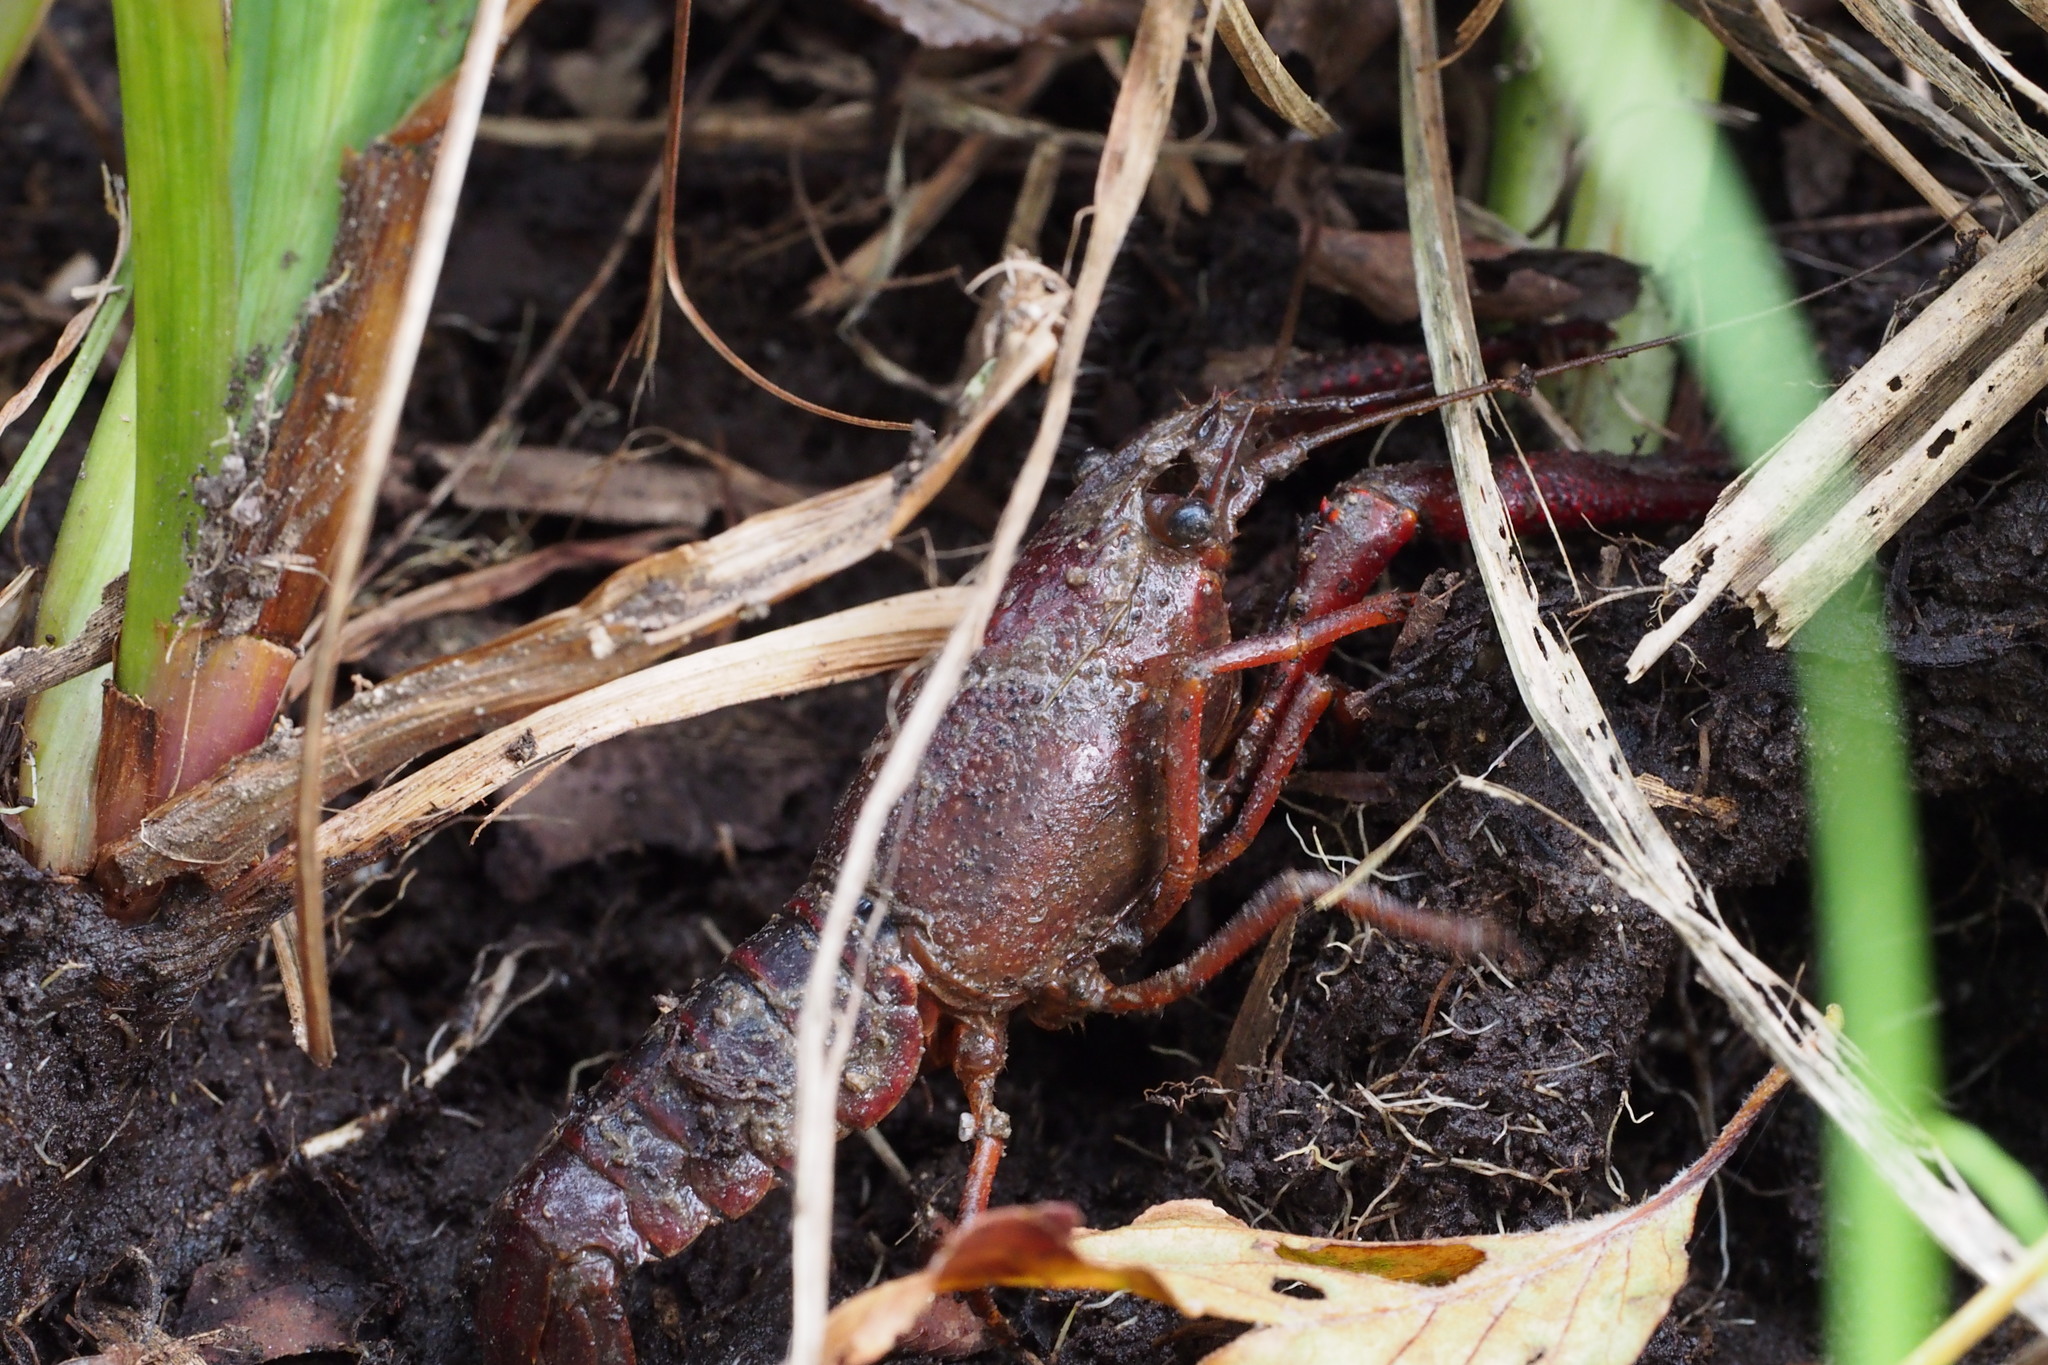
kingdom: Animalia
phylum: Arthropoda
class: Malacostraca
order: Decapoda
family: Cambaridae
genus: Procambarus
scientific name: Procambarus clarkii
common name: Red swamp crayfish
